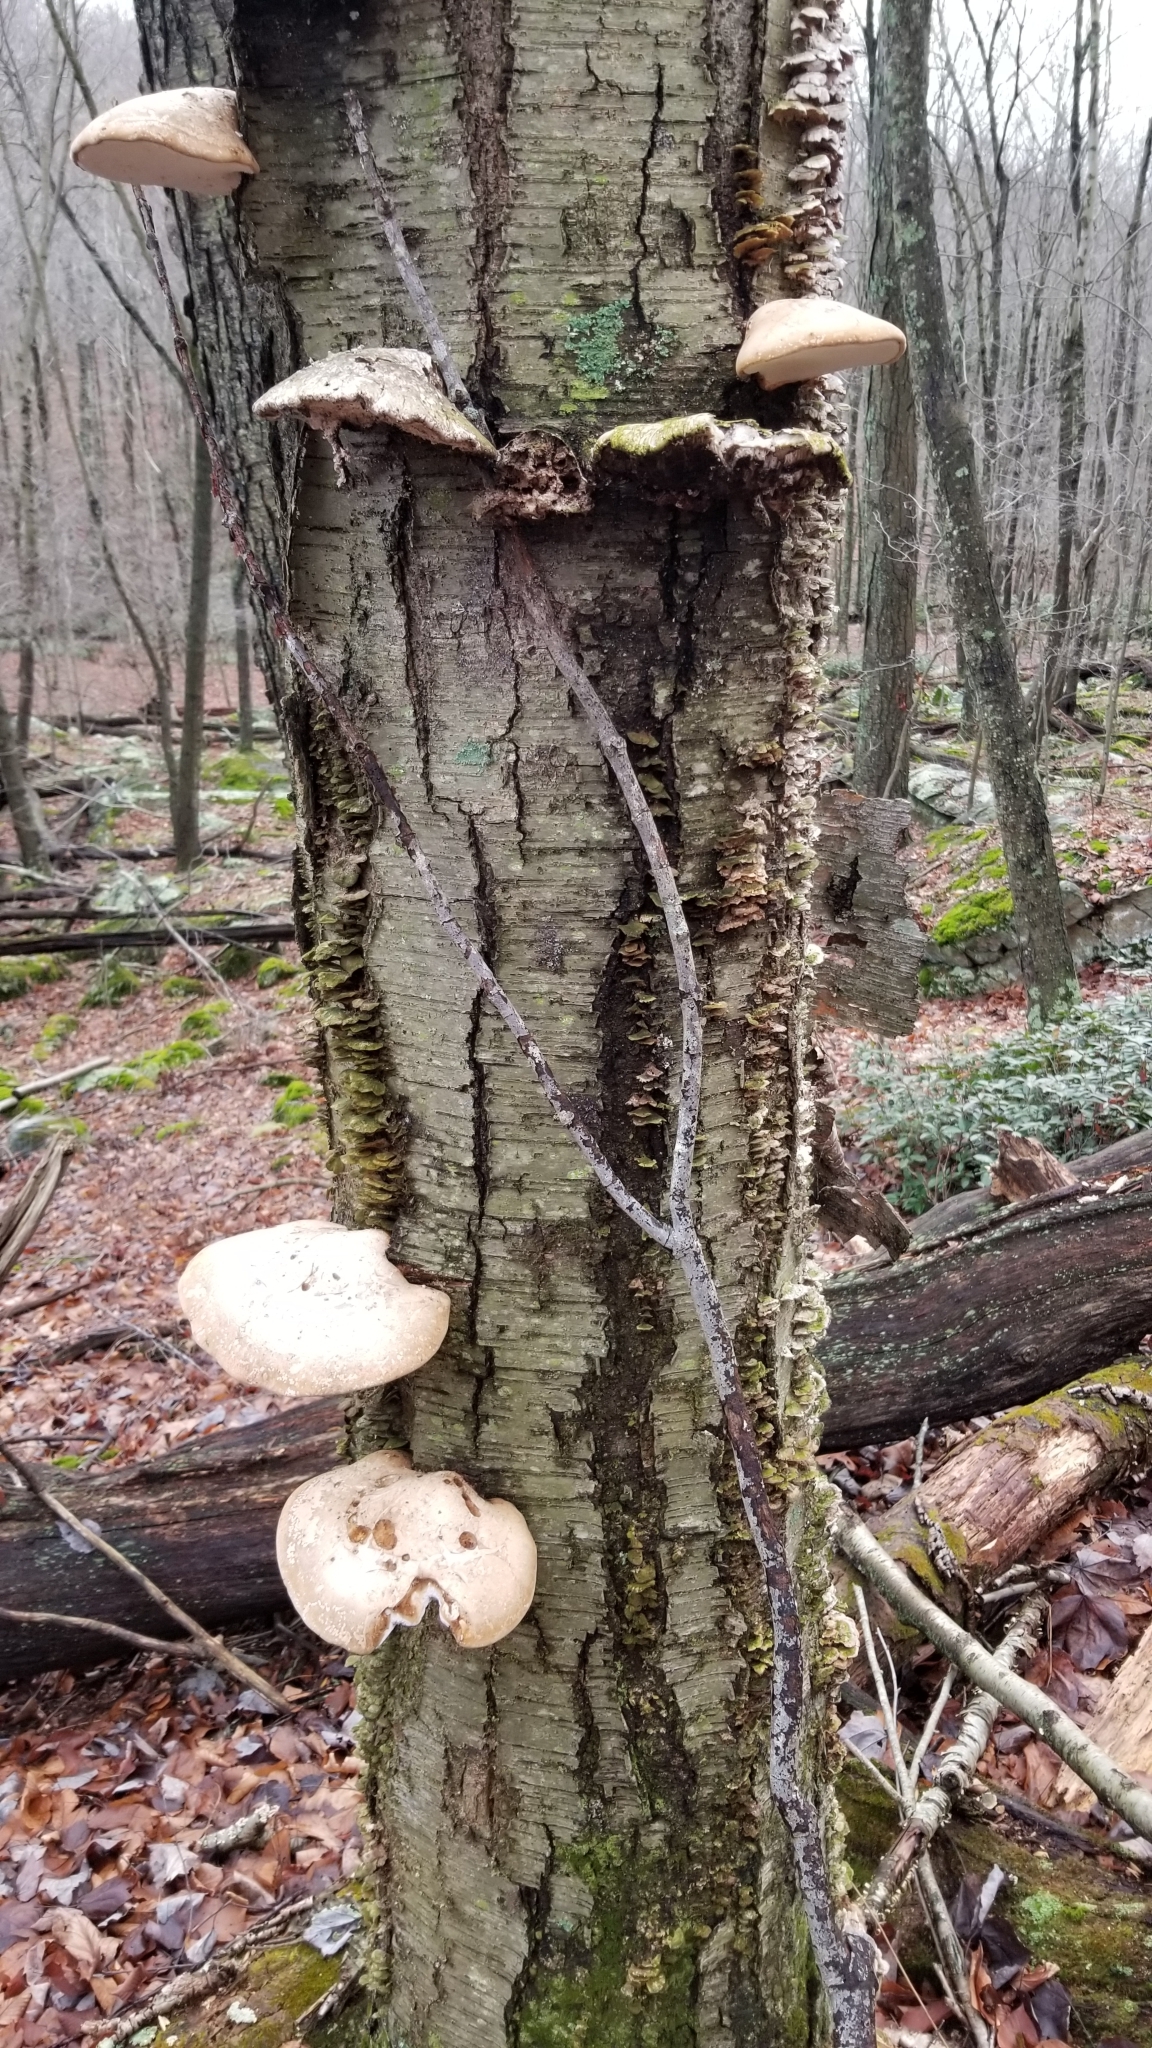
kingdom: Fungi
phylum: Basidiomycota
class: Agaricomycetes
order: Polyporales
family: Fomitopsidaceae
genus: Fomitopsis
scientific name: Fomitopsis betulina
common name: Birch polypore
